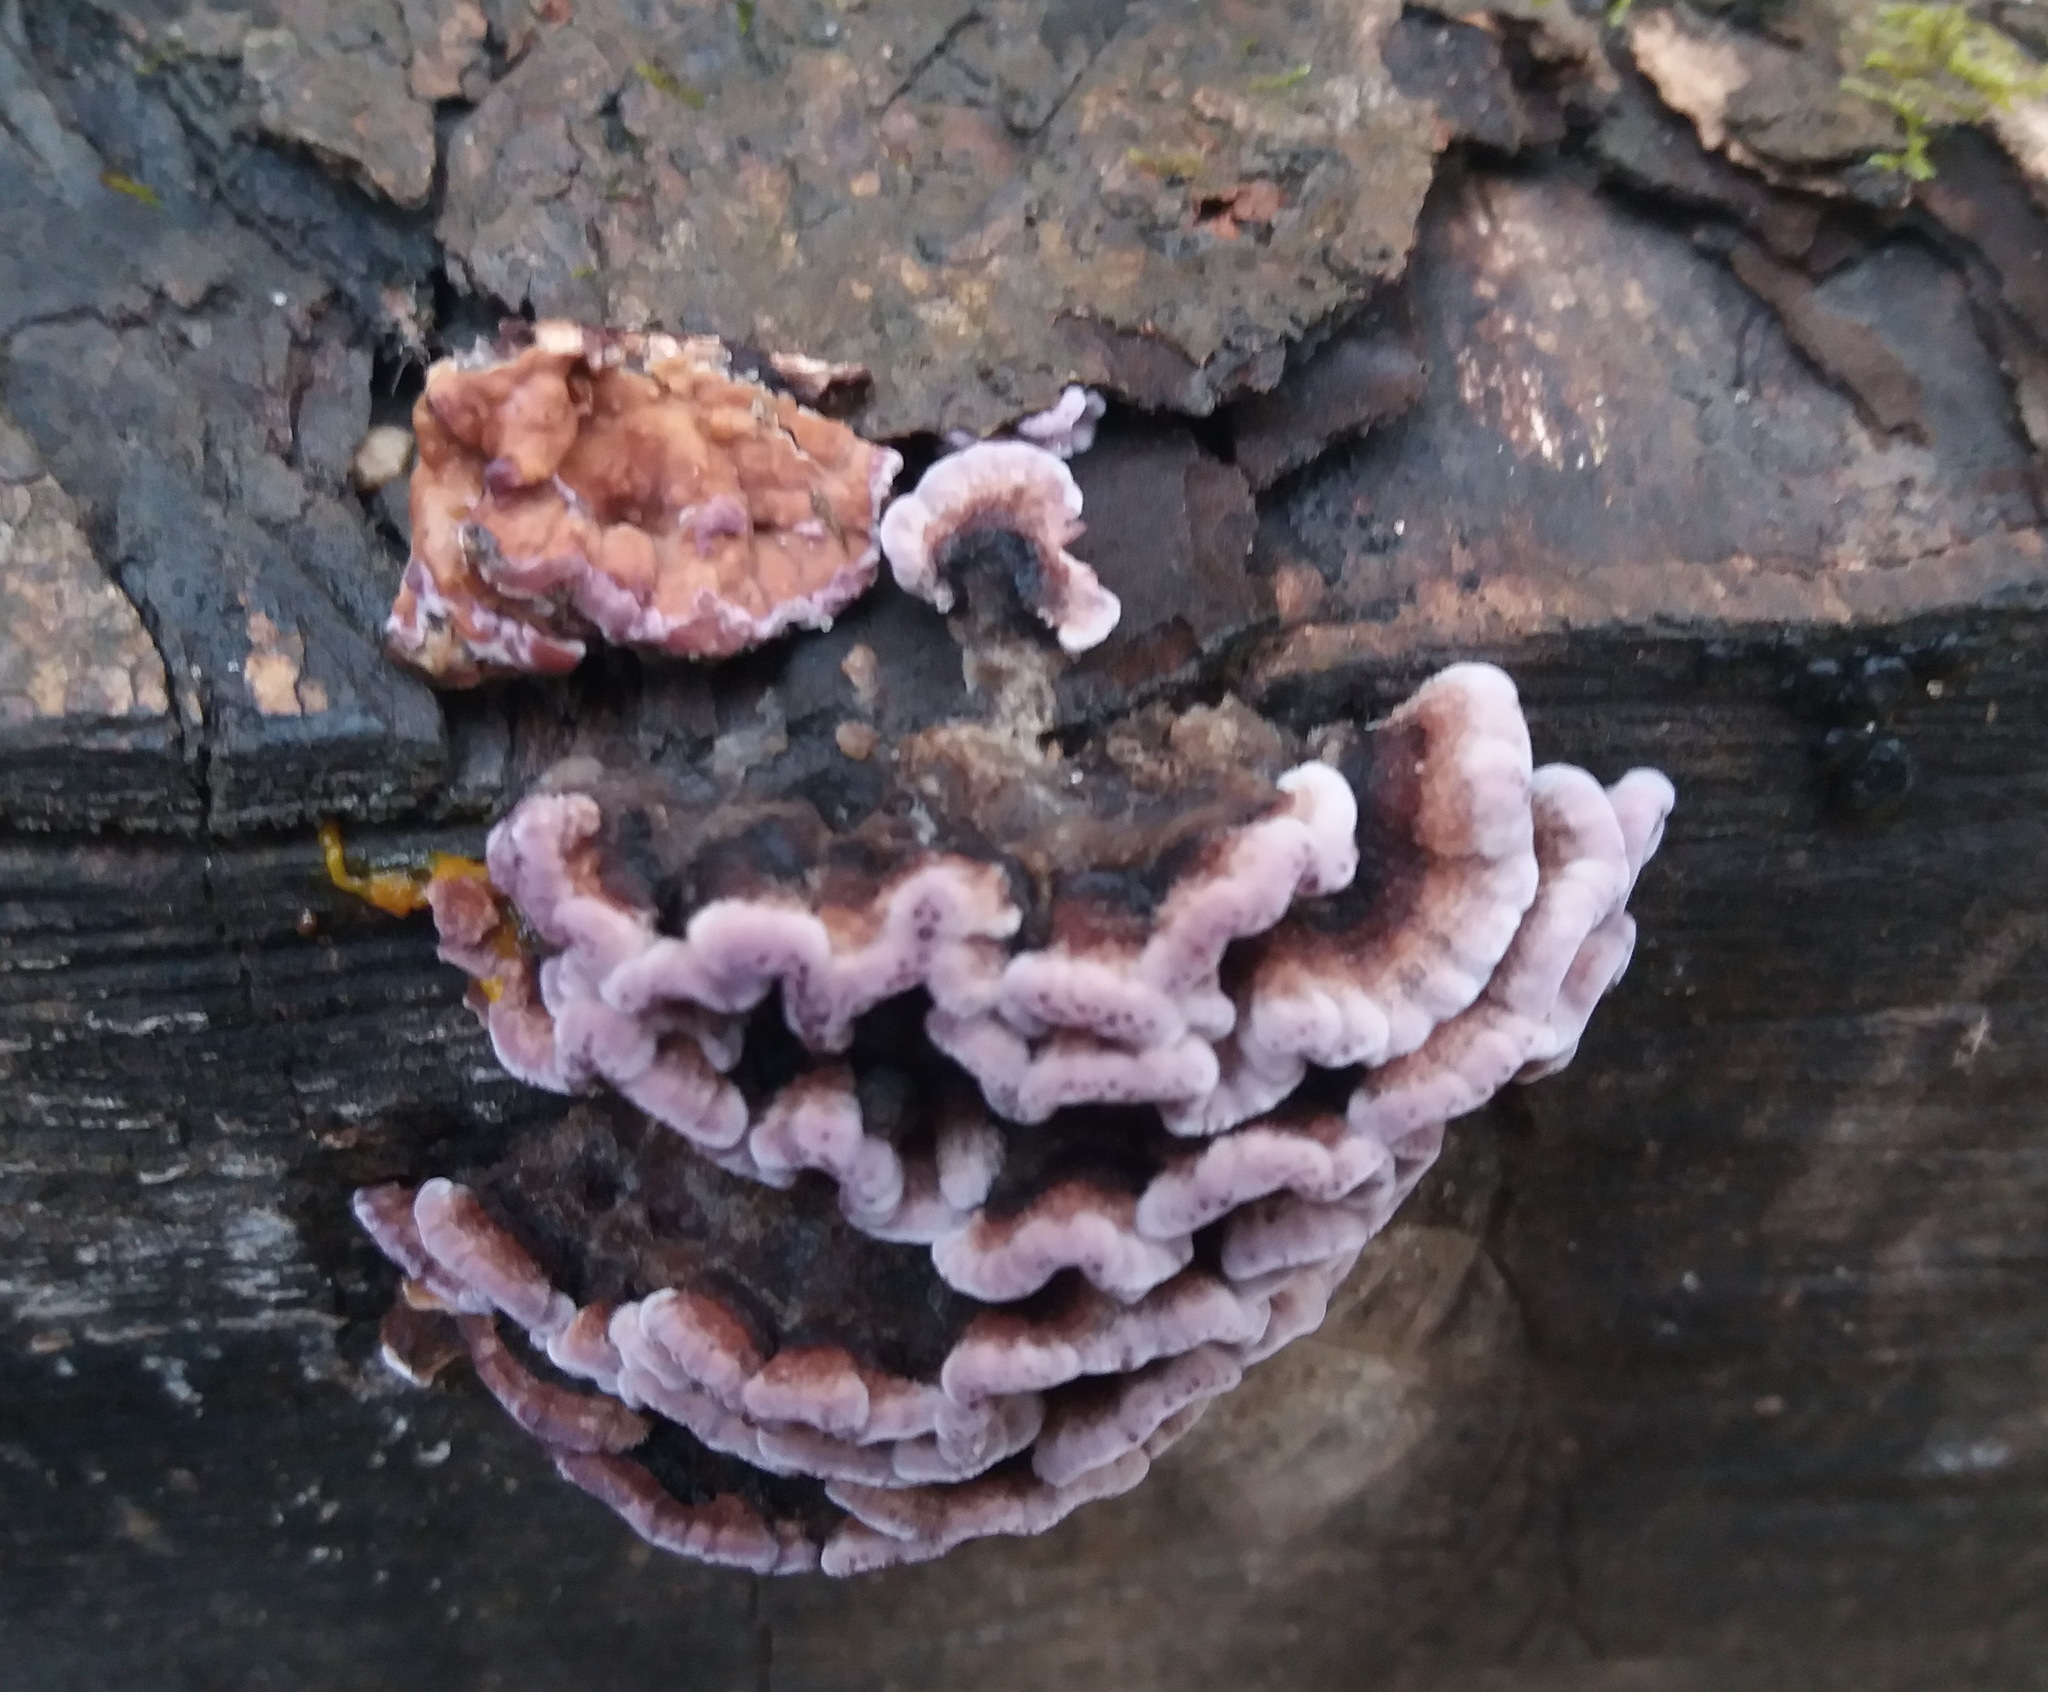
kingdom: Fungi
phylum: Basidiomycota
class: Agaricomycetes
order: Agaricales
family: Cyphellaceae
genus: Chondrostereum
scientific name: Chondrostereum purpureum
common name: Silver leaf disease
